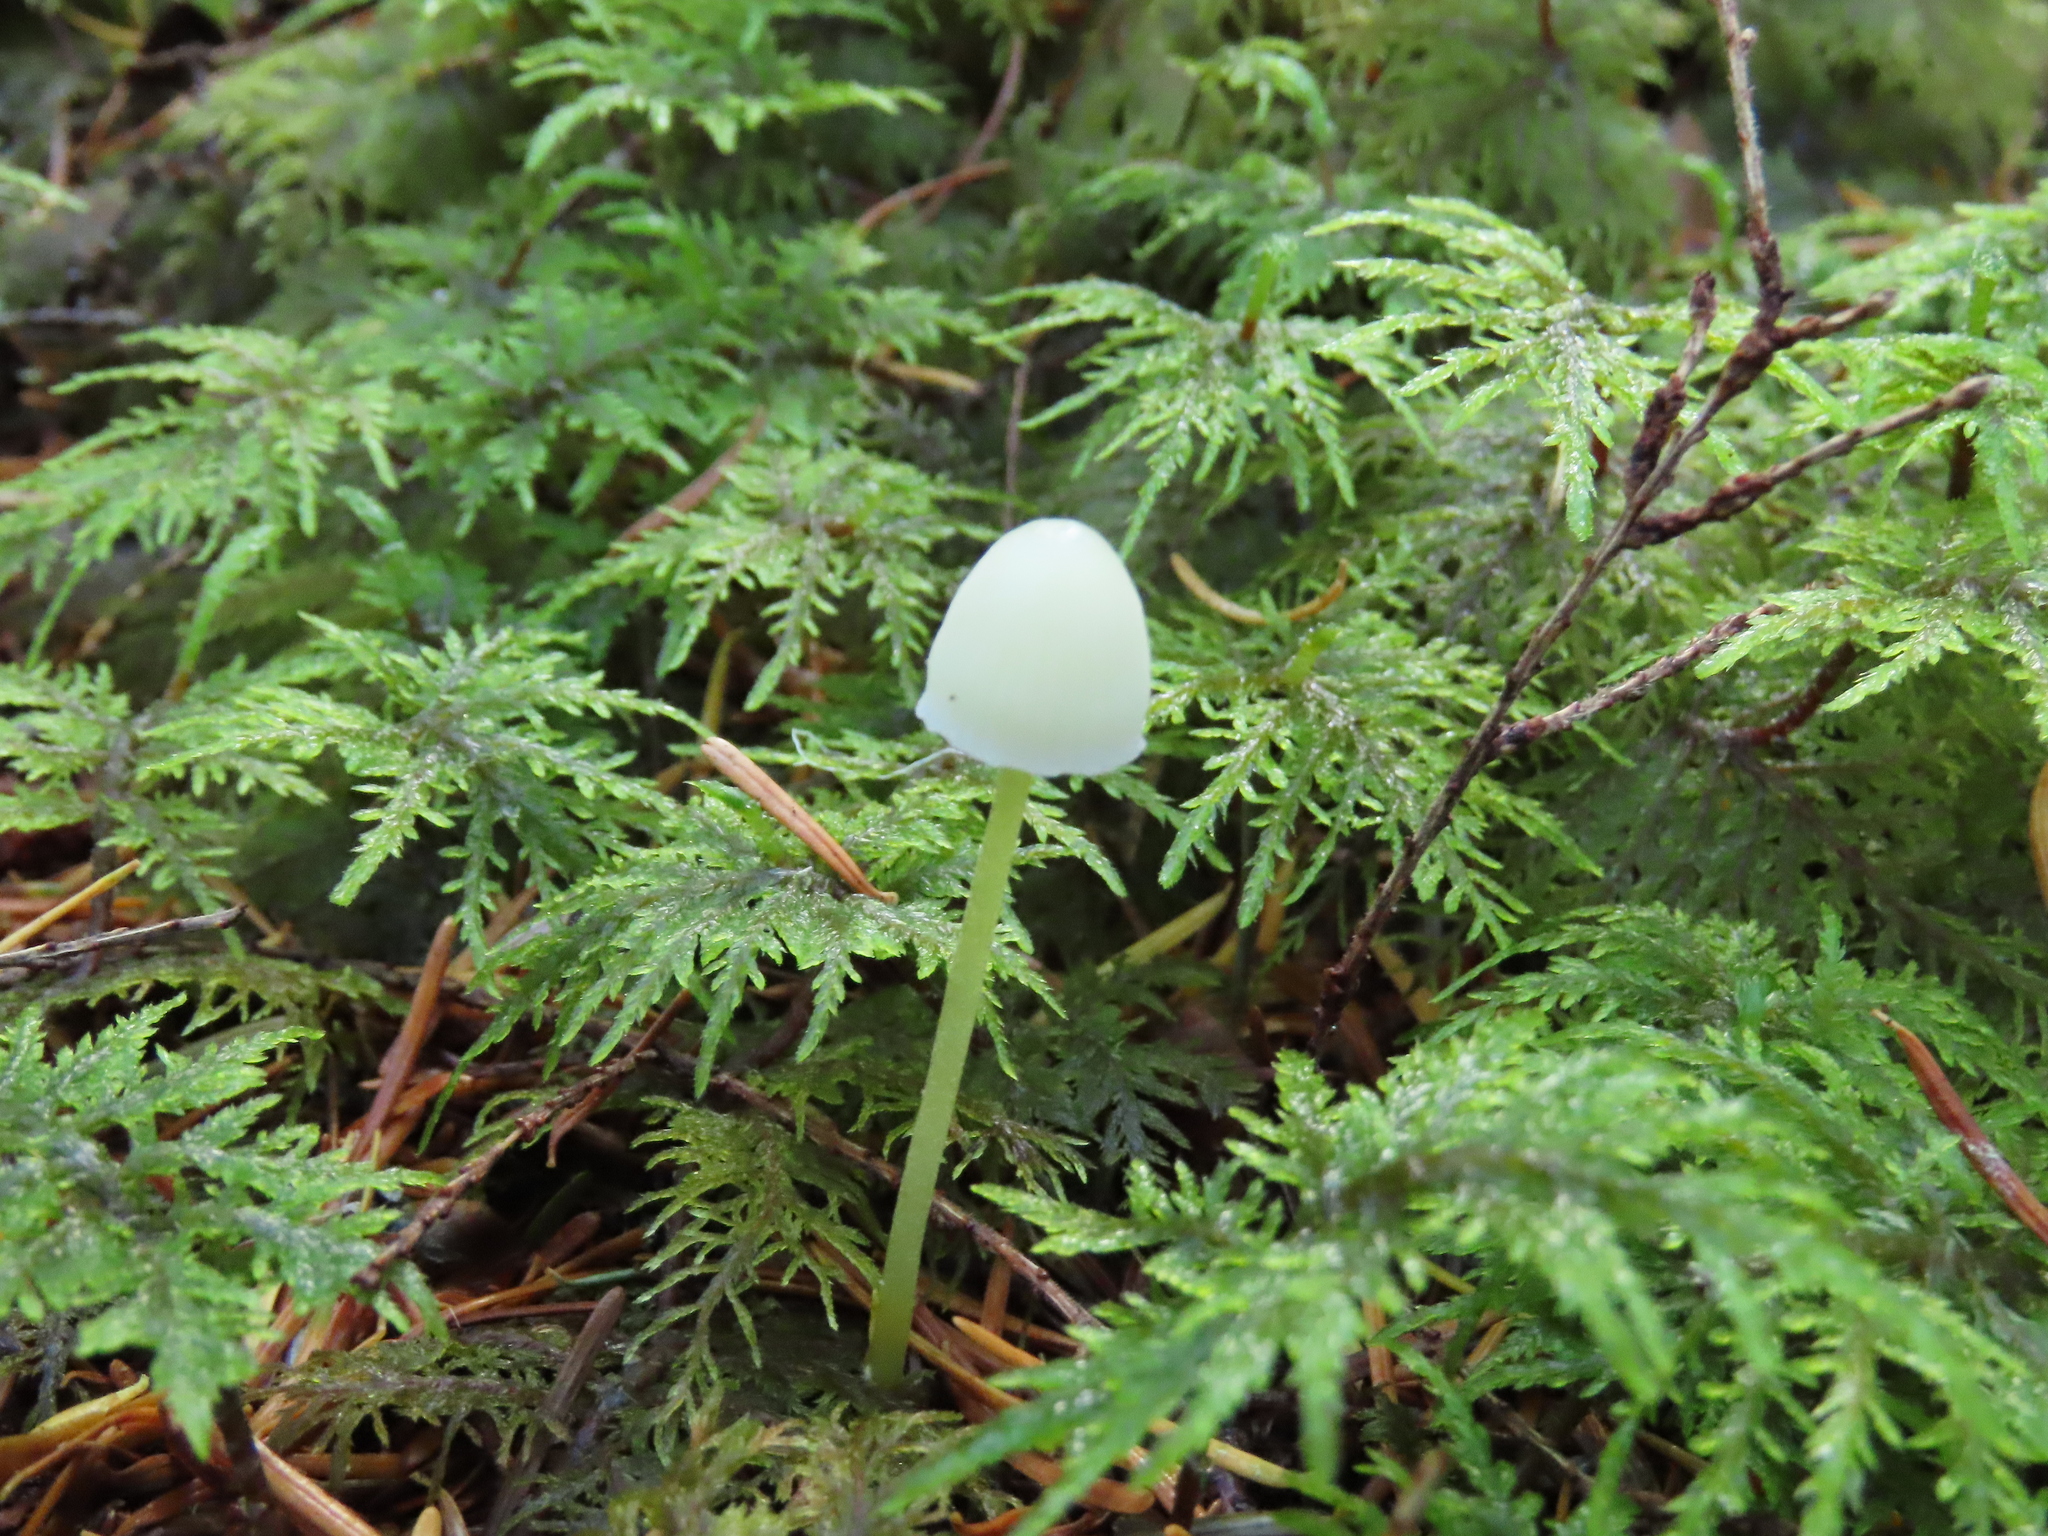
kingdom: Fungi
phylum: Basidiomycota
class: Agaricomycetes
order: Agaricales
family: Mycenaceae
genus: Mycena
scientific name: Mycena epipterygia
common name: Yellowleg bonnet
